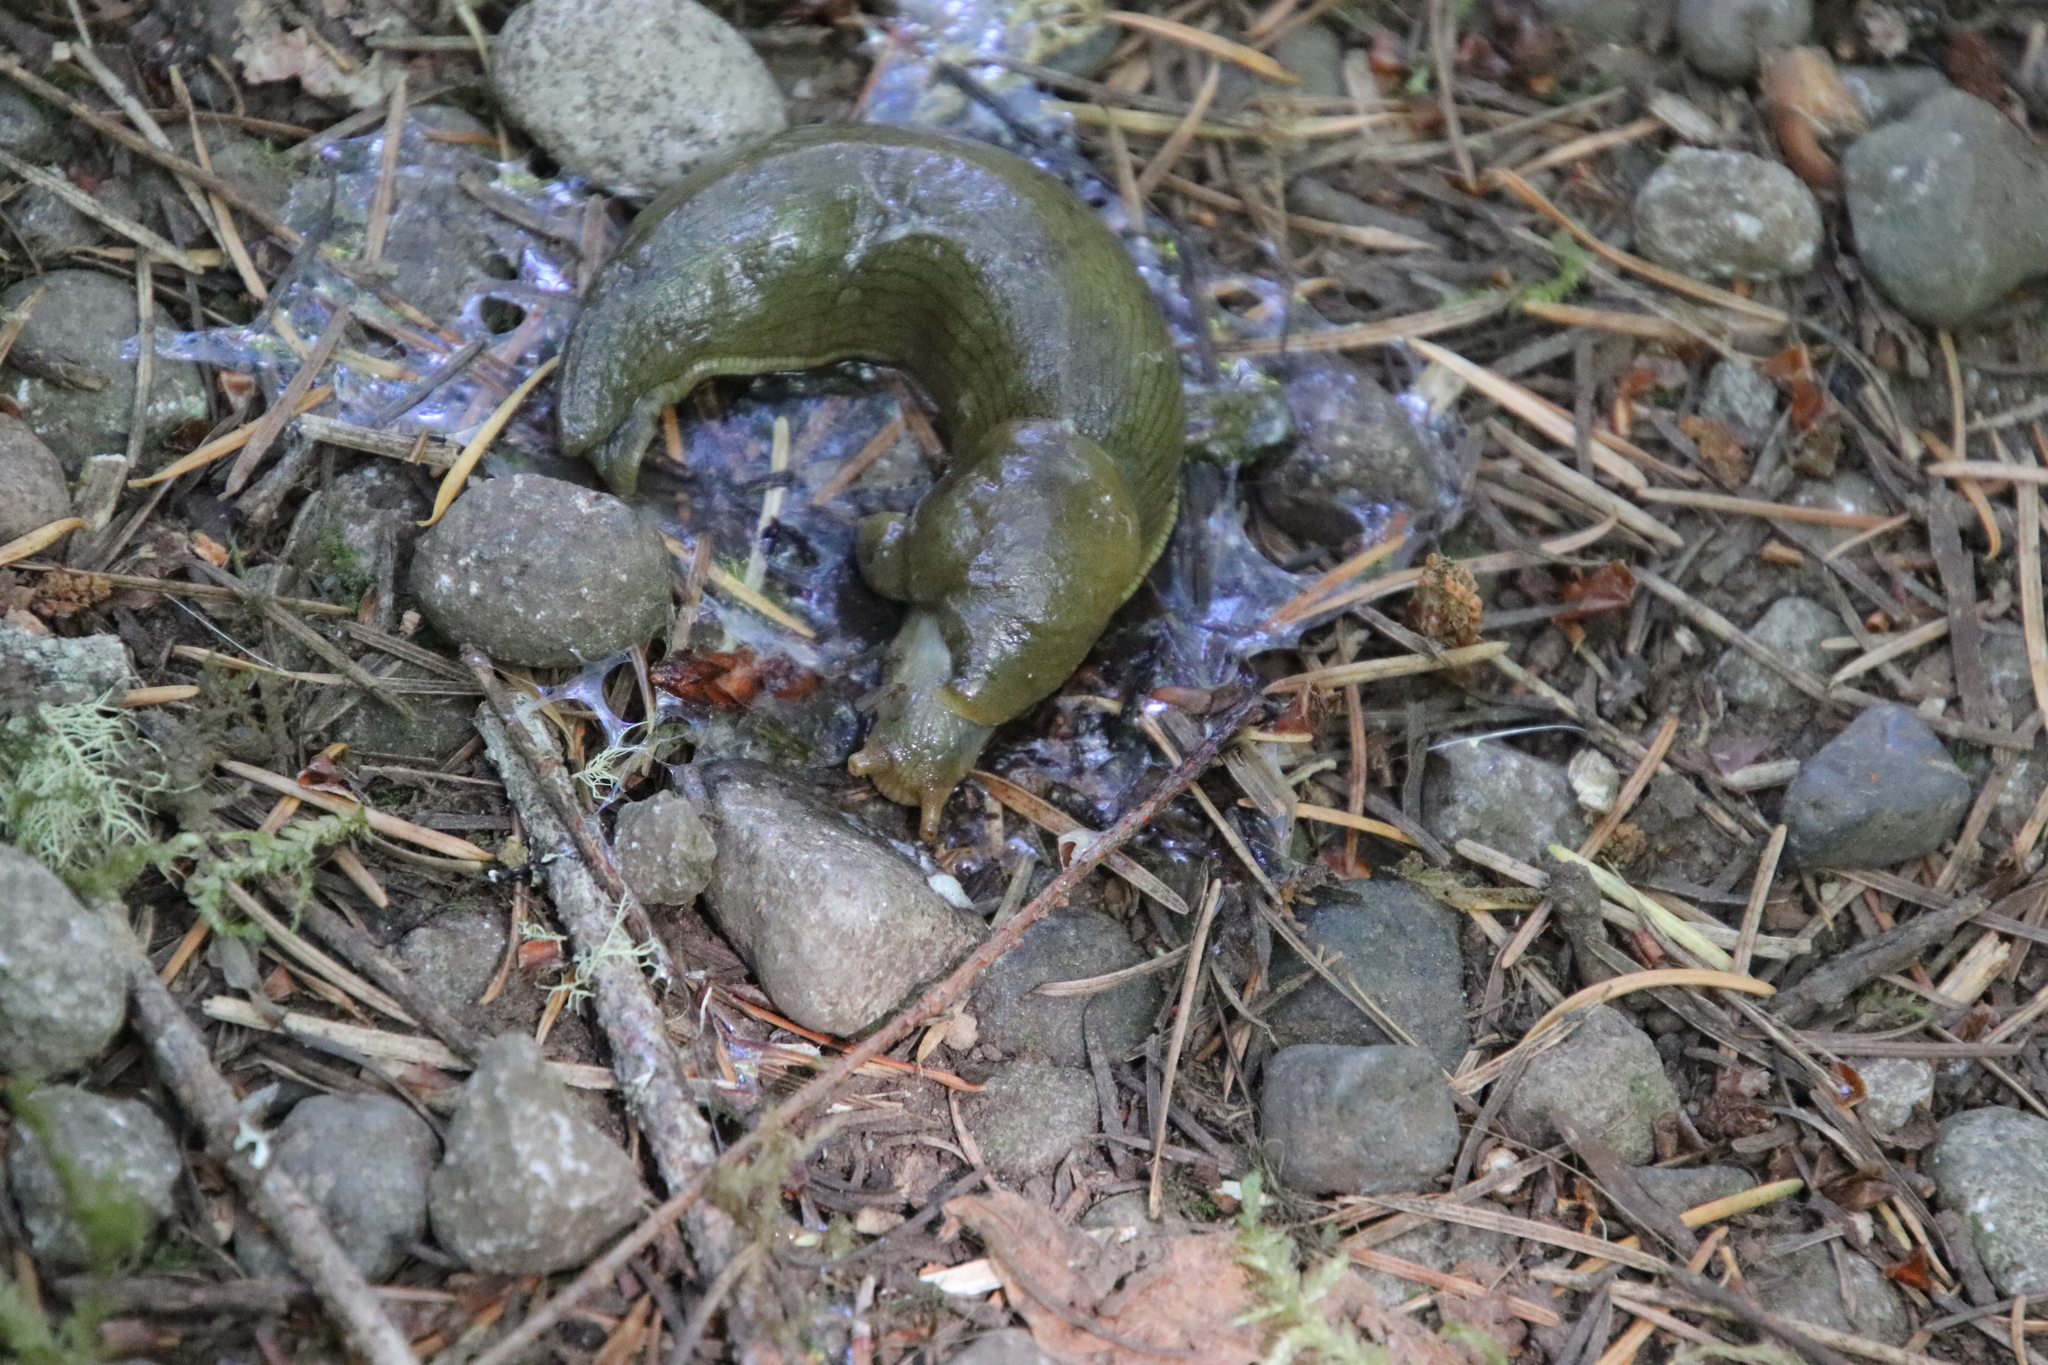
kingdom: Animalia
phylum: Mollusca
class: Gastropoda
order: Stylommatophora
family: Ariolimacidae
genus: Ariolimax
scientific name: Ariolimax columbianus
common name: Pacific banana slug
